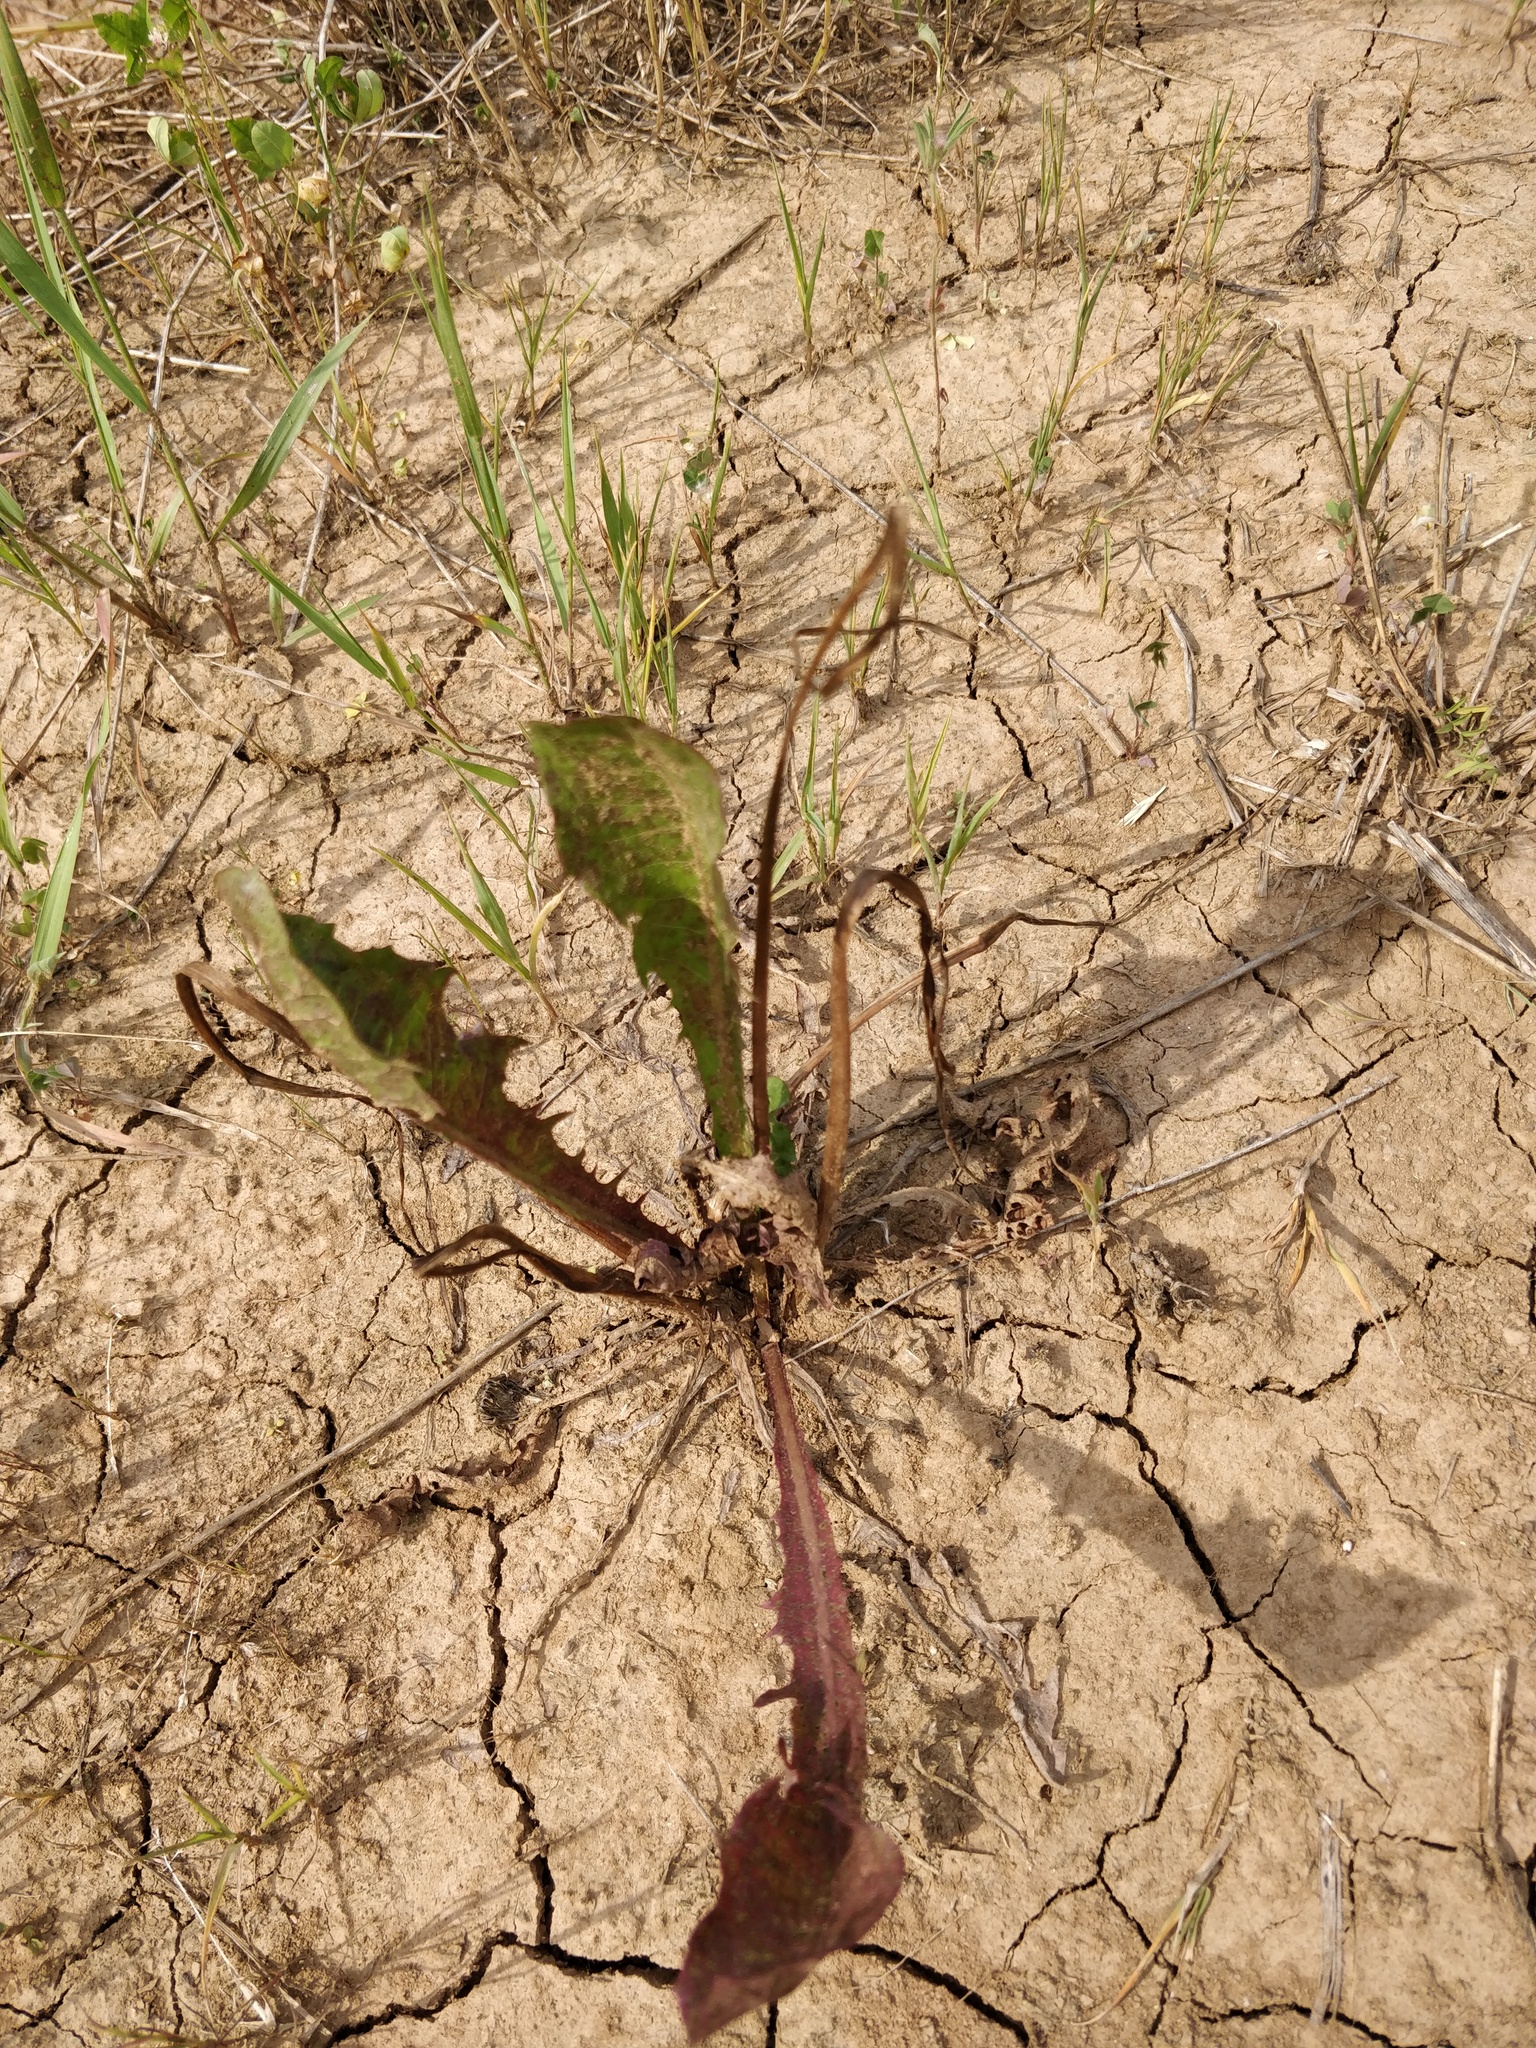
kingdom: Plantae
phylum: Tracheophyta
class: Magnoliopsida
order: Asterales
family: Asteraceae
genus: Taraxacum
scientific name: Taraxacum officinale
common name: Common dandelion
